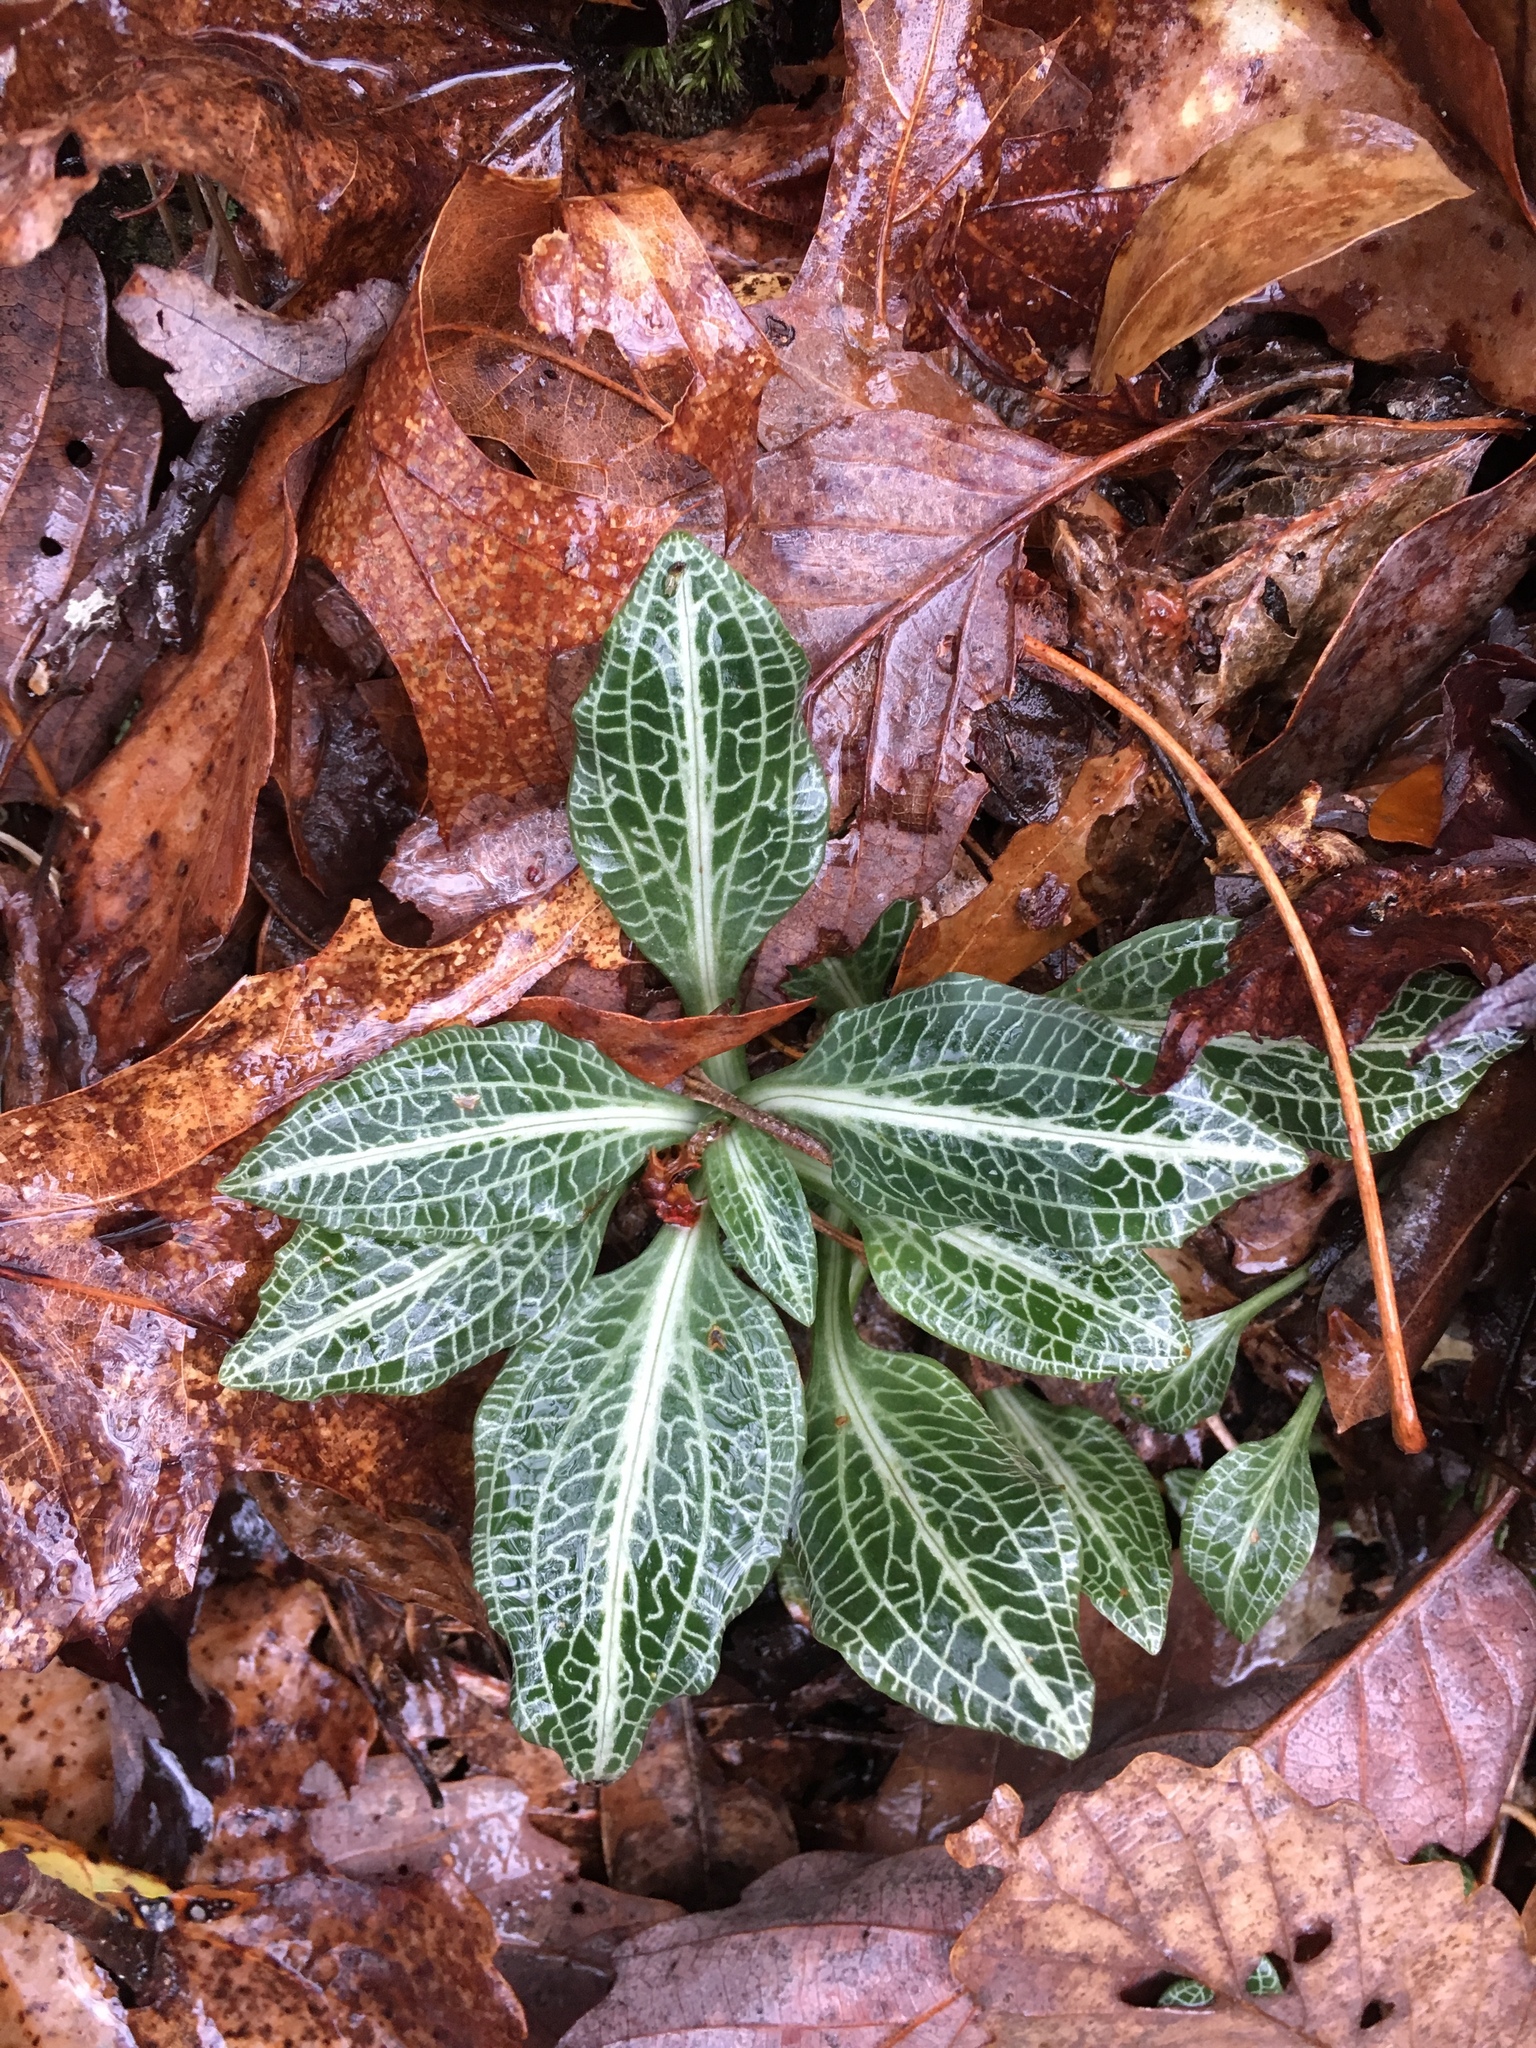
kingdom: Plantae
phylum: Tracheophyta
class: Liliopsida
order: Asparagales
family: Orchidaceae
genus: Goodyera
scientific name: Goodyera pubescens
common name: Downy rattlesnake-plantain
